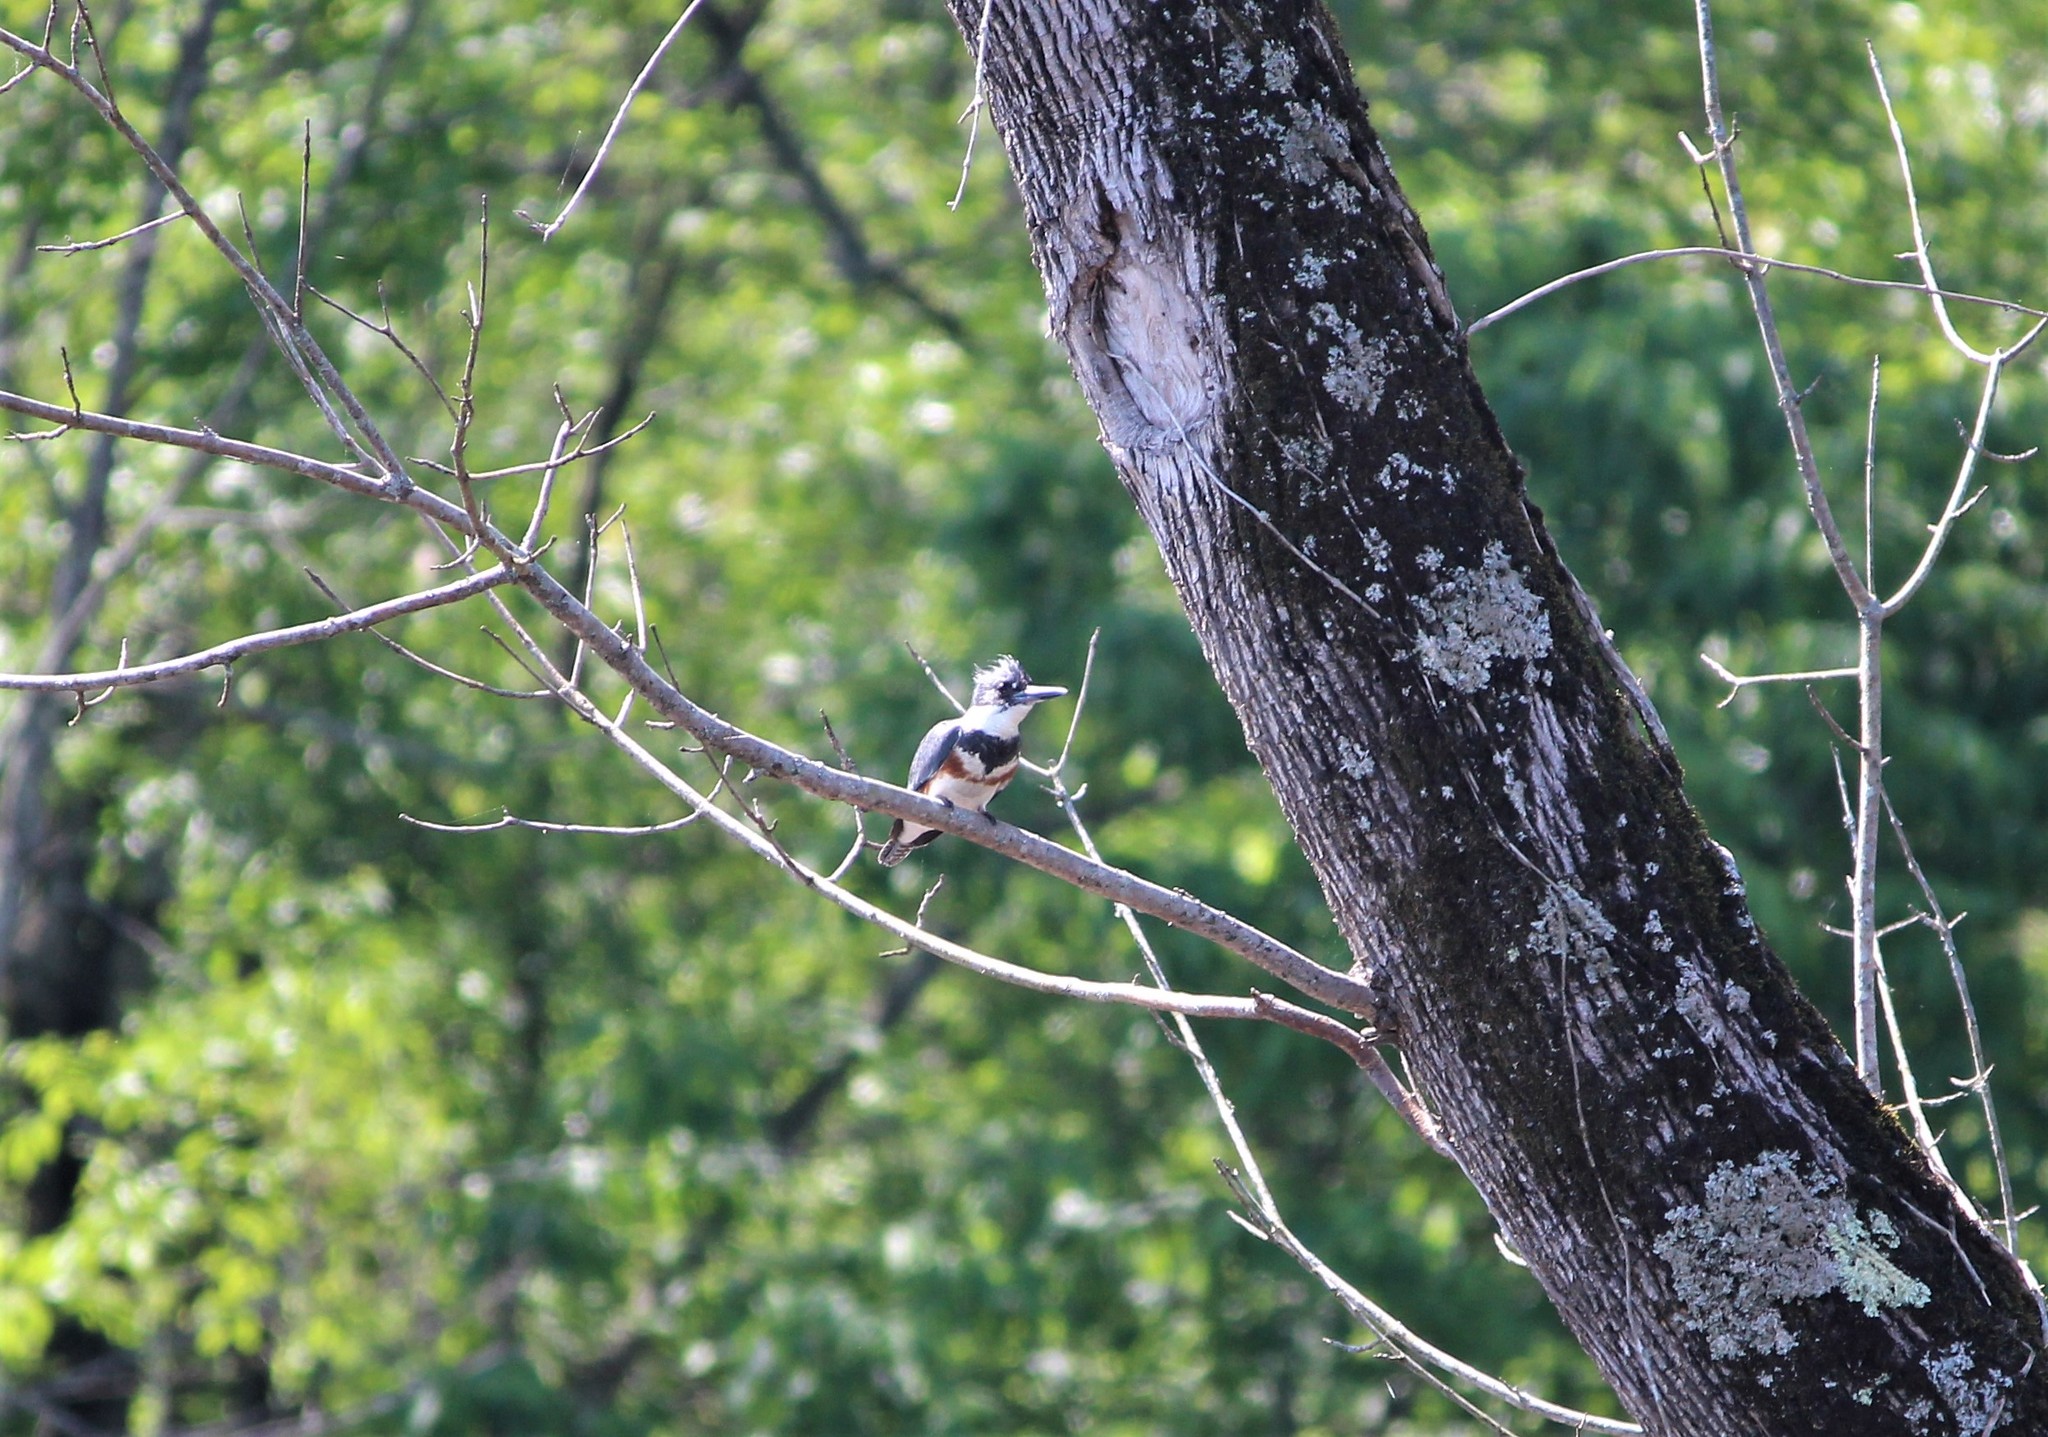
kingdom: Animalia
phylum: Chordata
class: Aves
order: Coraciiformes
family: Alcedinidae
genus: Megaceryle
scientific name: Megaceryle alcyon
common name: Belted kingfisher
